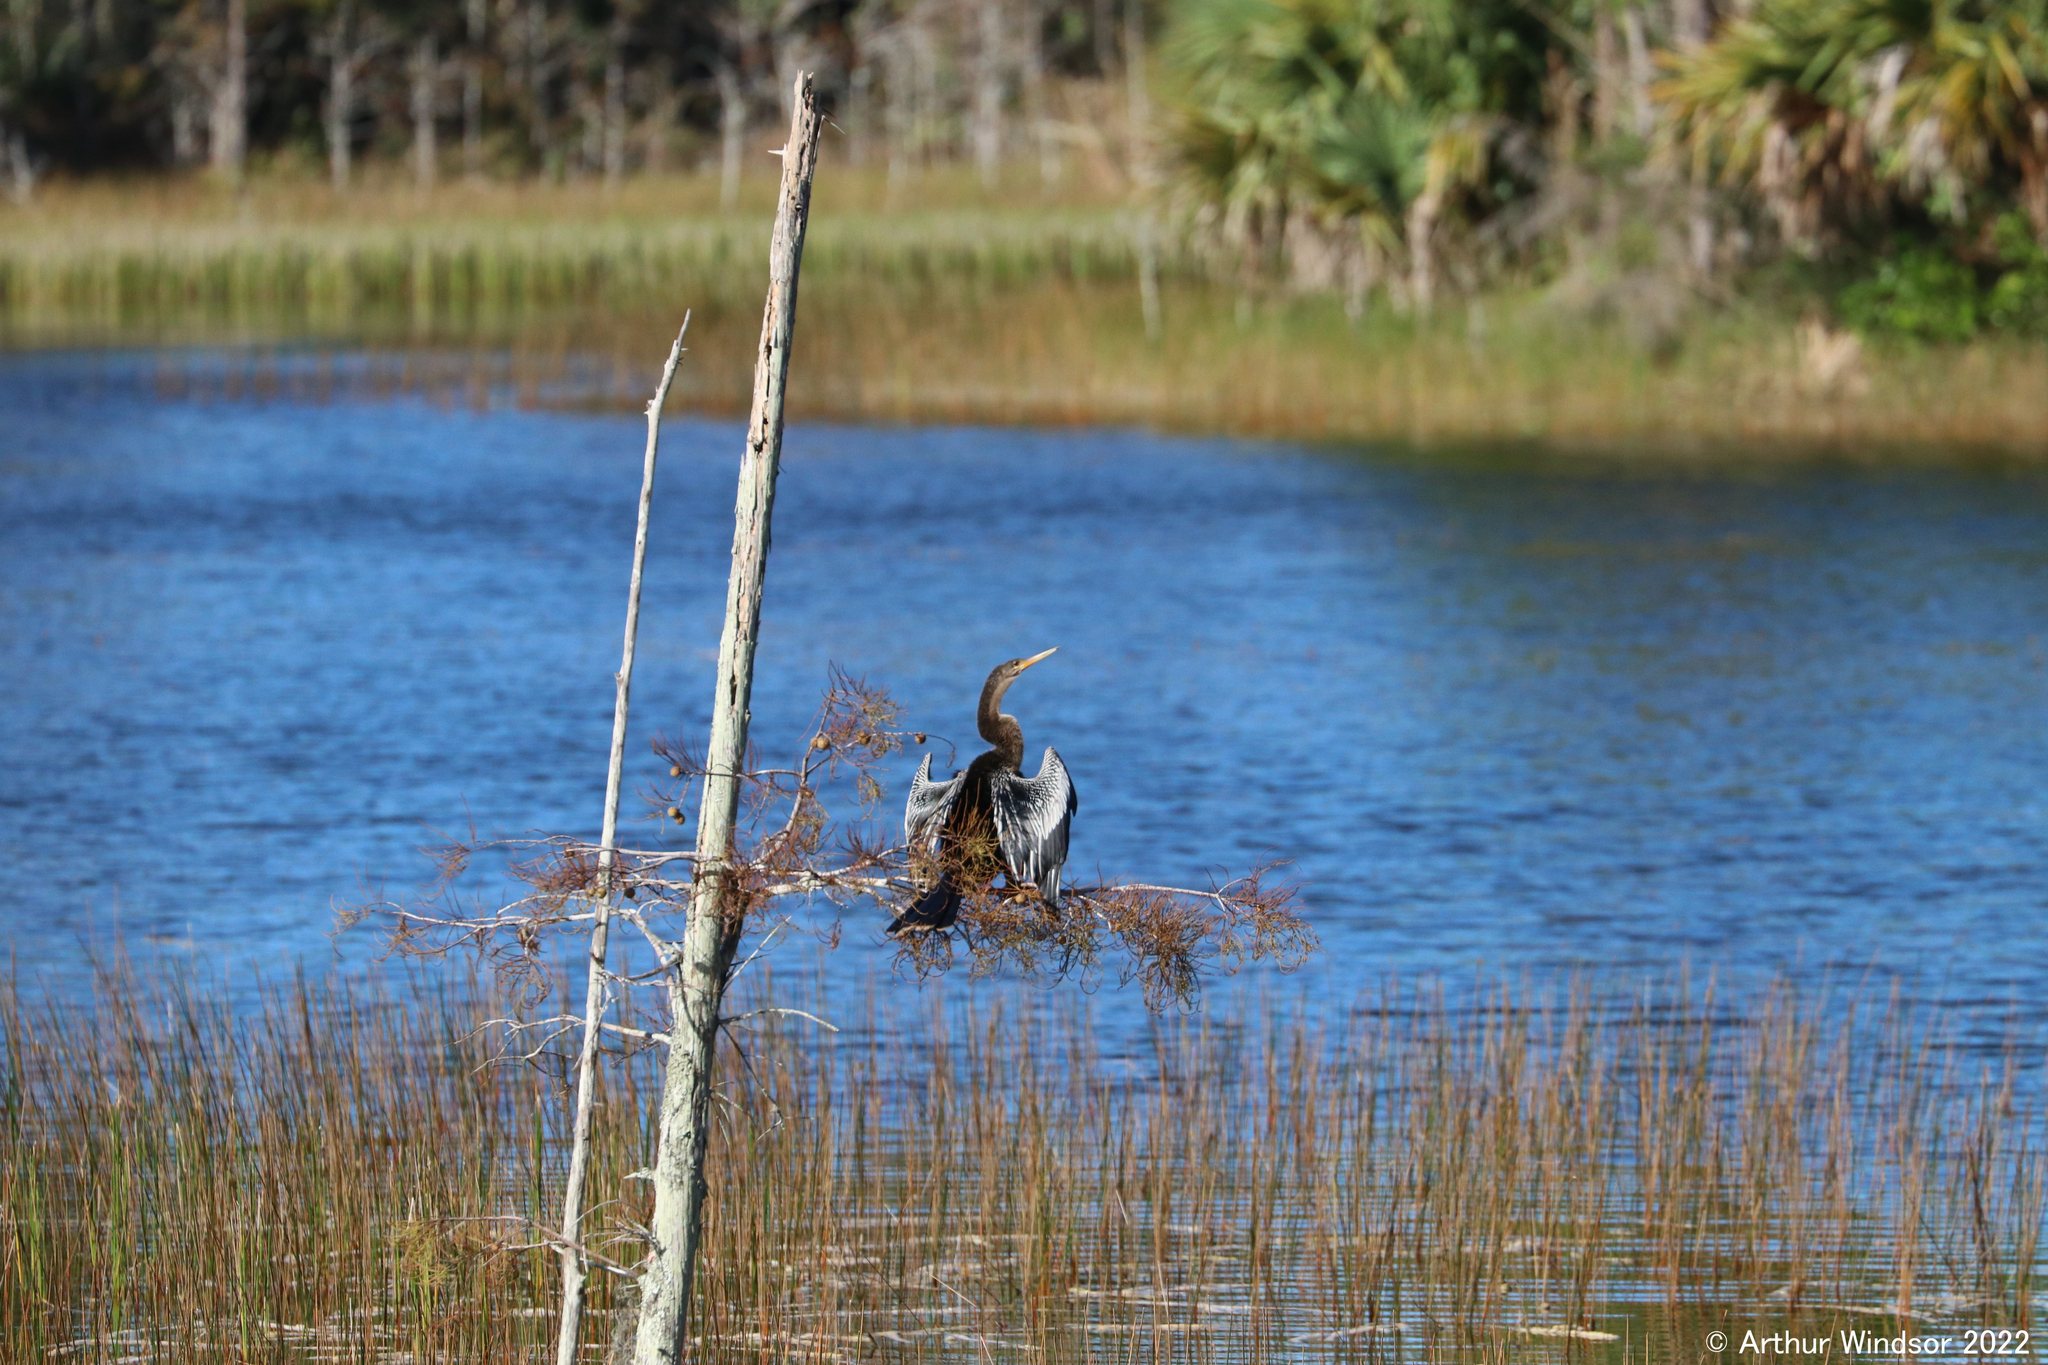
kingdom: Animalia
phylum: Chordata
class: Aves
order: Suliformes
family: Anhingidae
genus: Anhinga
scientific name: Anhinga anhinga
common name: Anhinga
